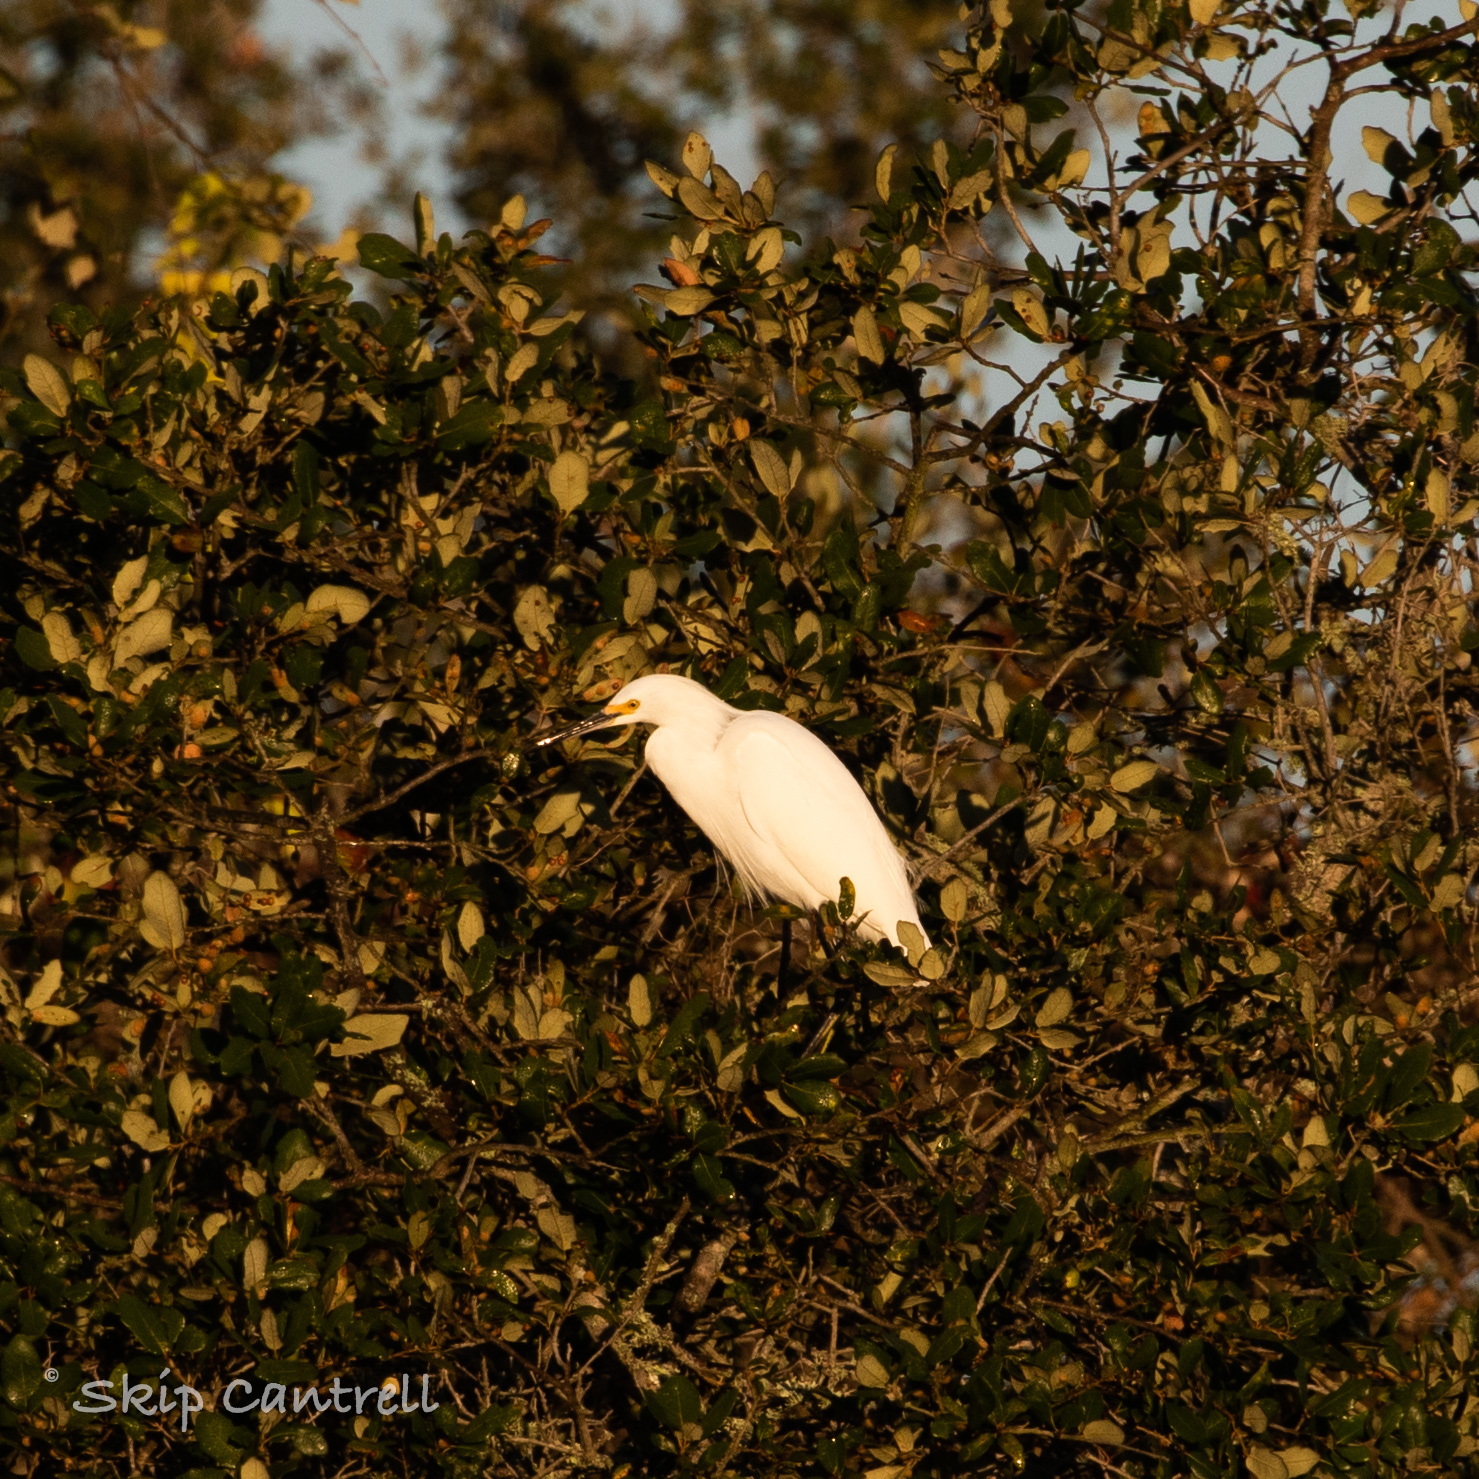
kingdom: Animalia
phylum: Chordata
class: Aves
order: Pelecaniformes
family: Ardeidae
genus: Egretta
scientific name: Egretta thula
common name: Snowy egret
